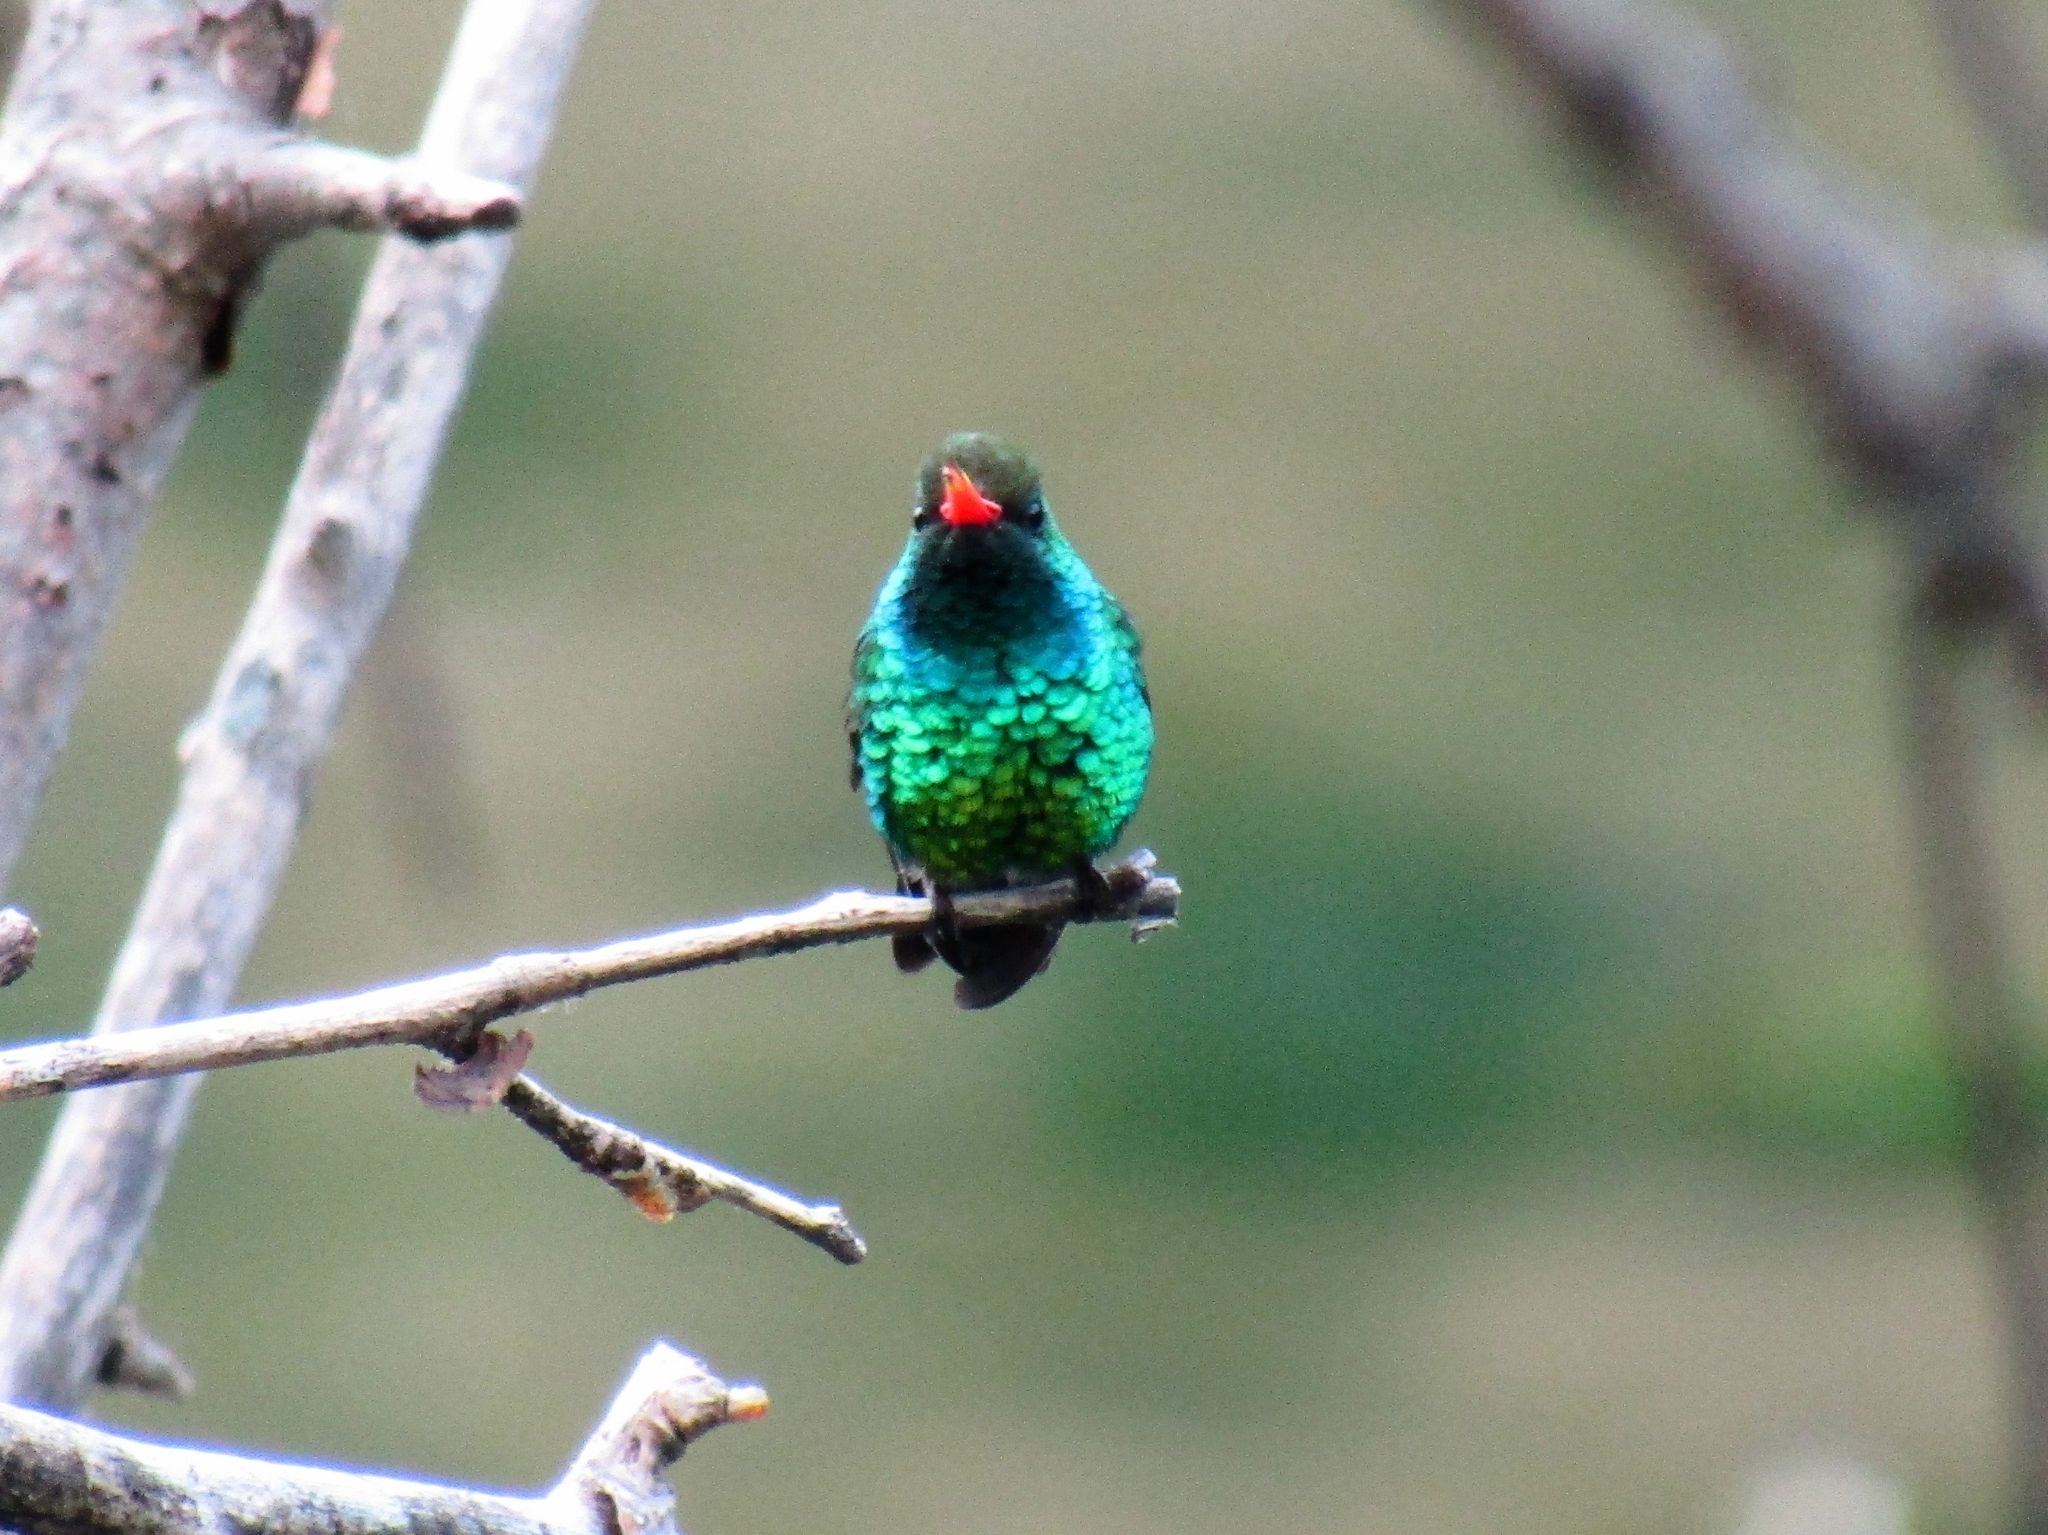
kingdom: Animalia
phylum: Chordata
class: Aves
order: Apodiformes
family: Trochilidae
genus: Chlorostilbon
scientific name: Chlorostilbon lucidus
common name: Glittering-bellied emerald
